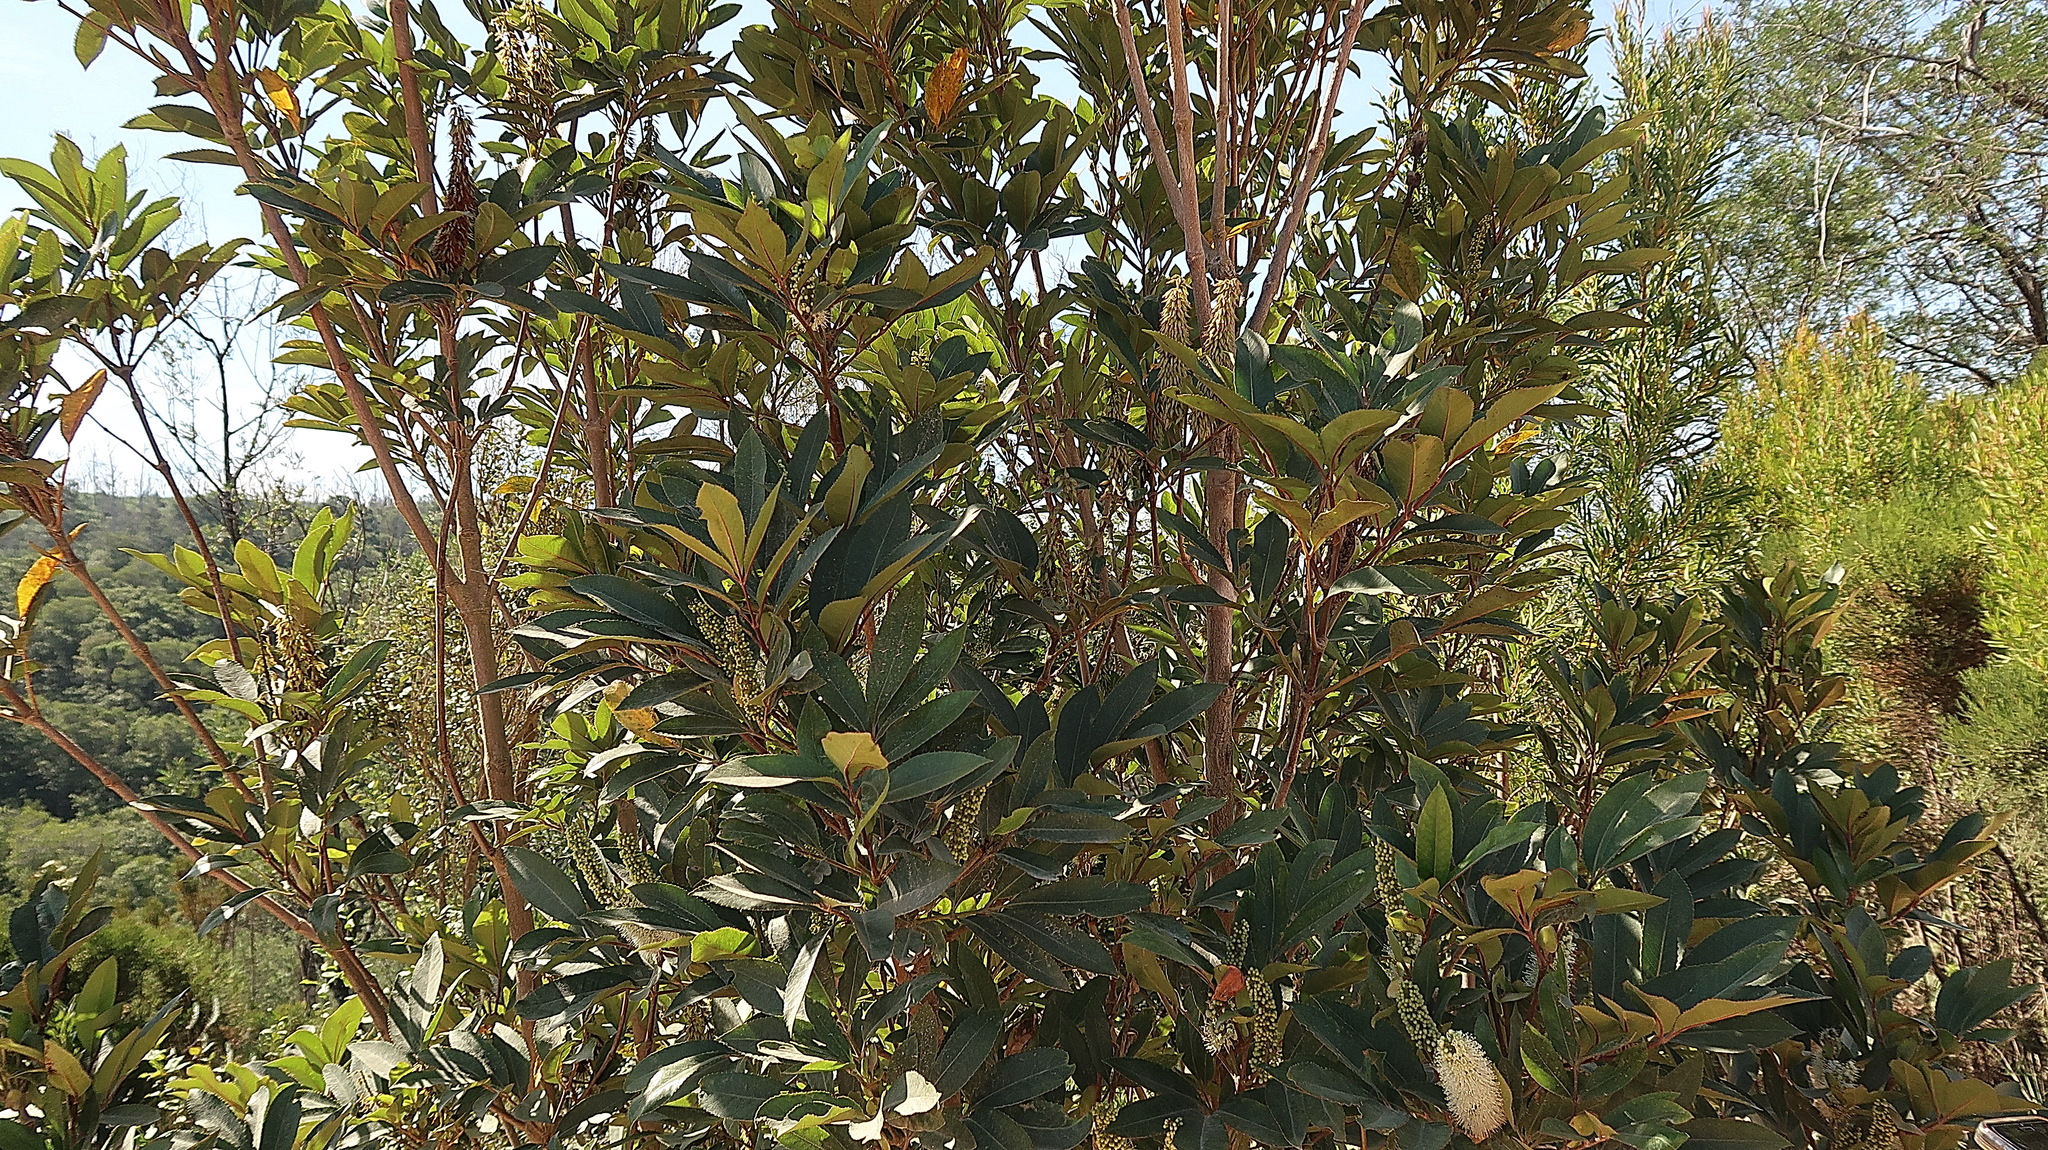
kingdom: Plantae
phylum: Tracheophyta
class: Magnoliopsida
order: Sapindales
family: Anacardiaceae
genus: Laurophyllus
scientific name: Laurophyllus capensis
